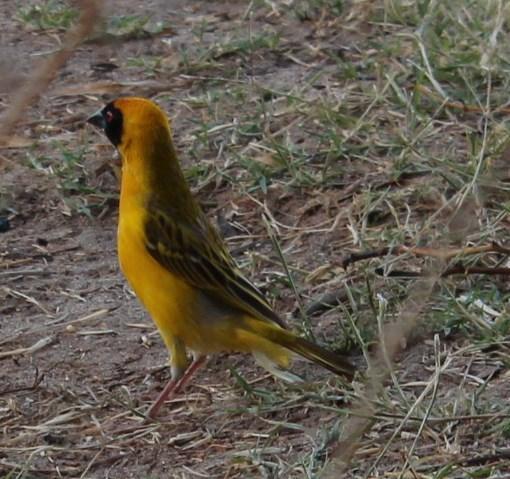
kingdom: Animalia
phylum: Chordata
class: Aves
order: Passeriformes
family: Ploceidae
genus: Ploceus
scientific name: Ploceus velatus
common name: Southern masked weaver
